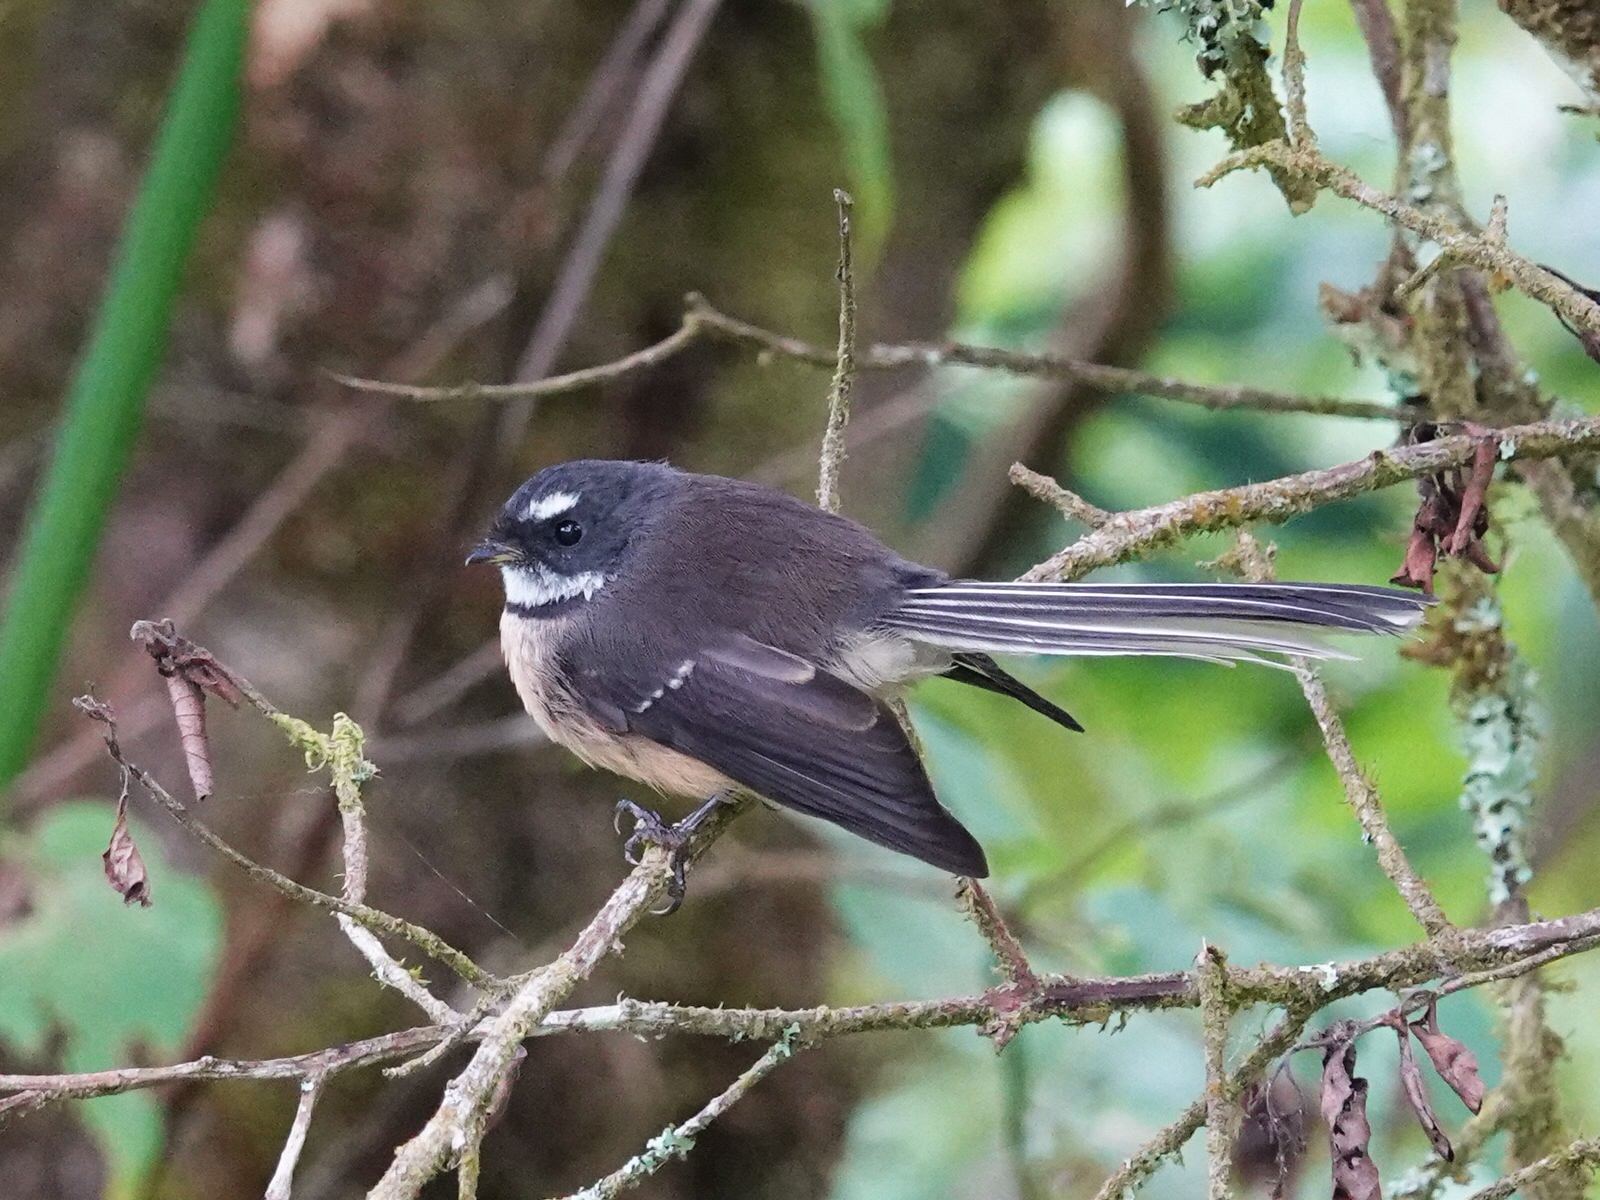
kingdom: Animalia
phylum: Chordata
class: Aves
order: Passeriformes
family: Rhipiduridae
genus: Rhipidura
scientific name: Rhipidura fuliginosa
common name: New zealand fantail
